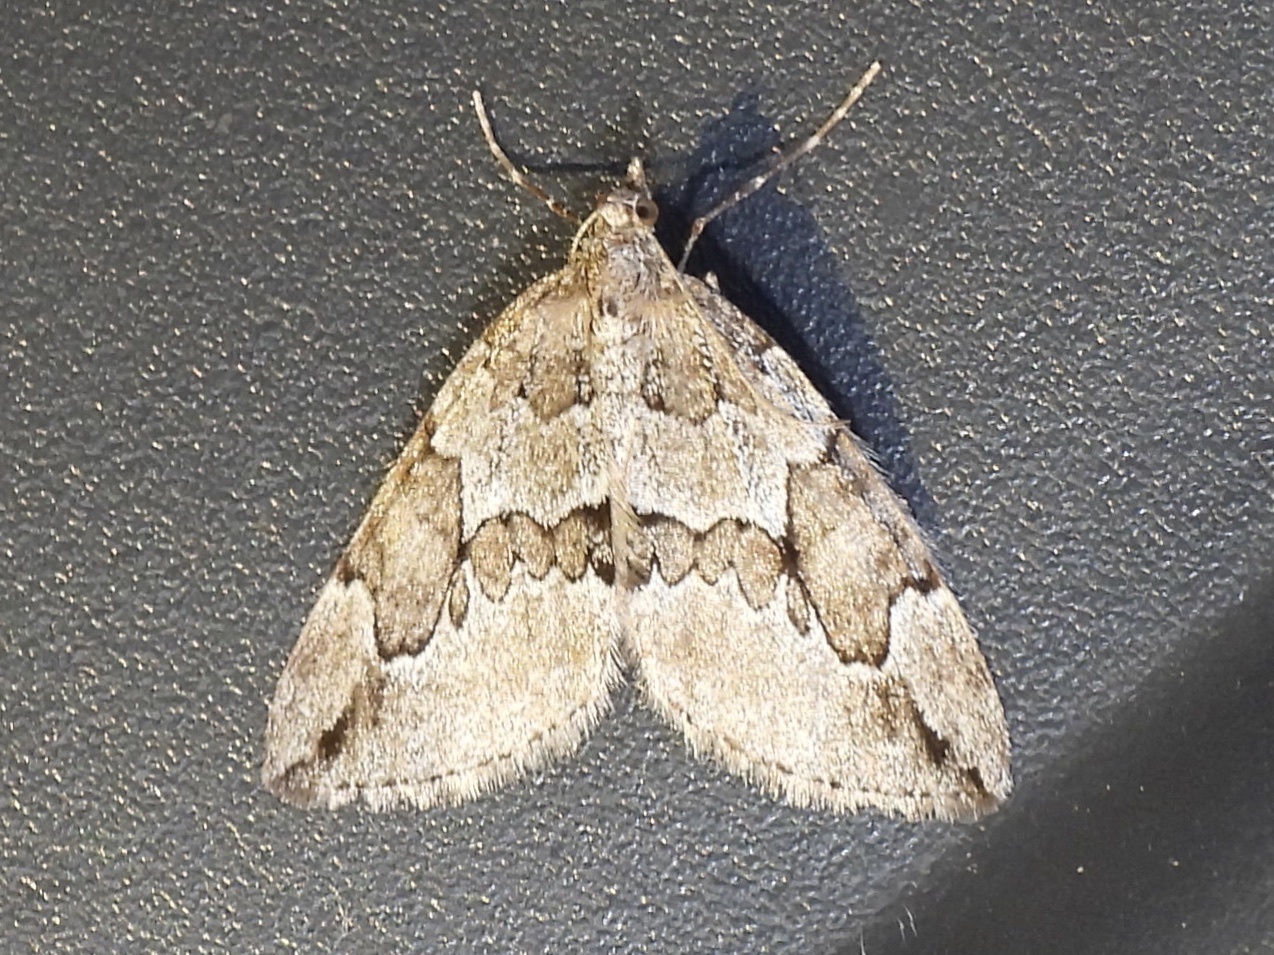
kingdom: Animalia
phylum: Arthropoda
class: Insecta
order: Lepidoptera
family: Geometridae
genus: Thera
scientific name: Thera juniperata
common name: Juniper carpet
